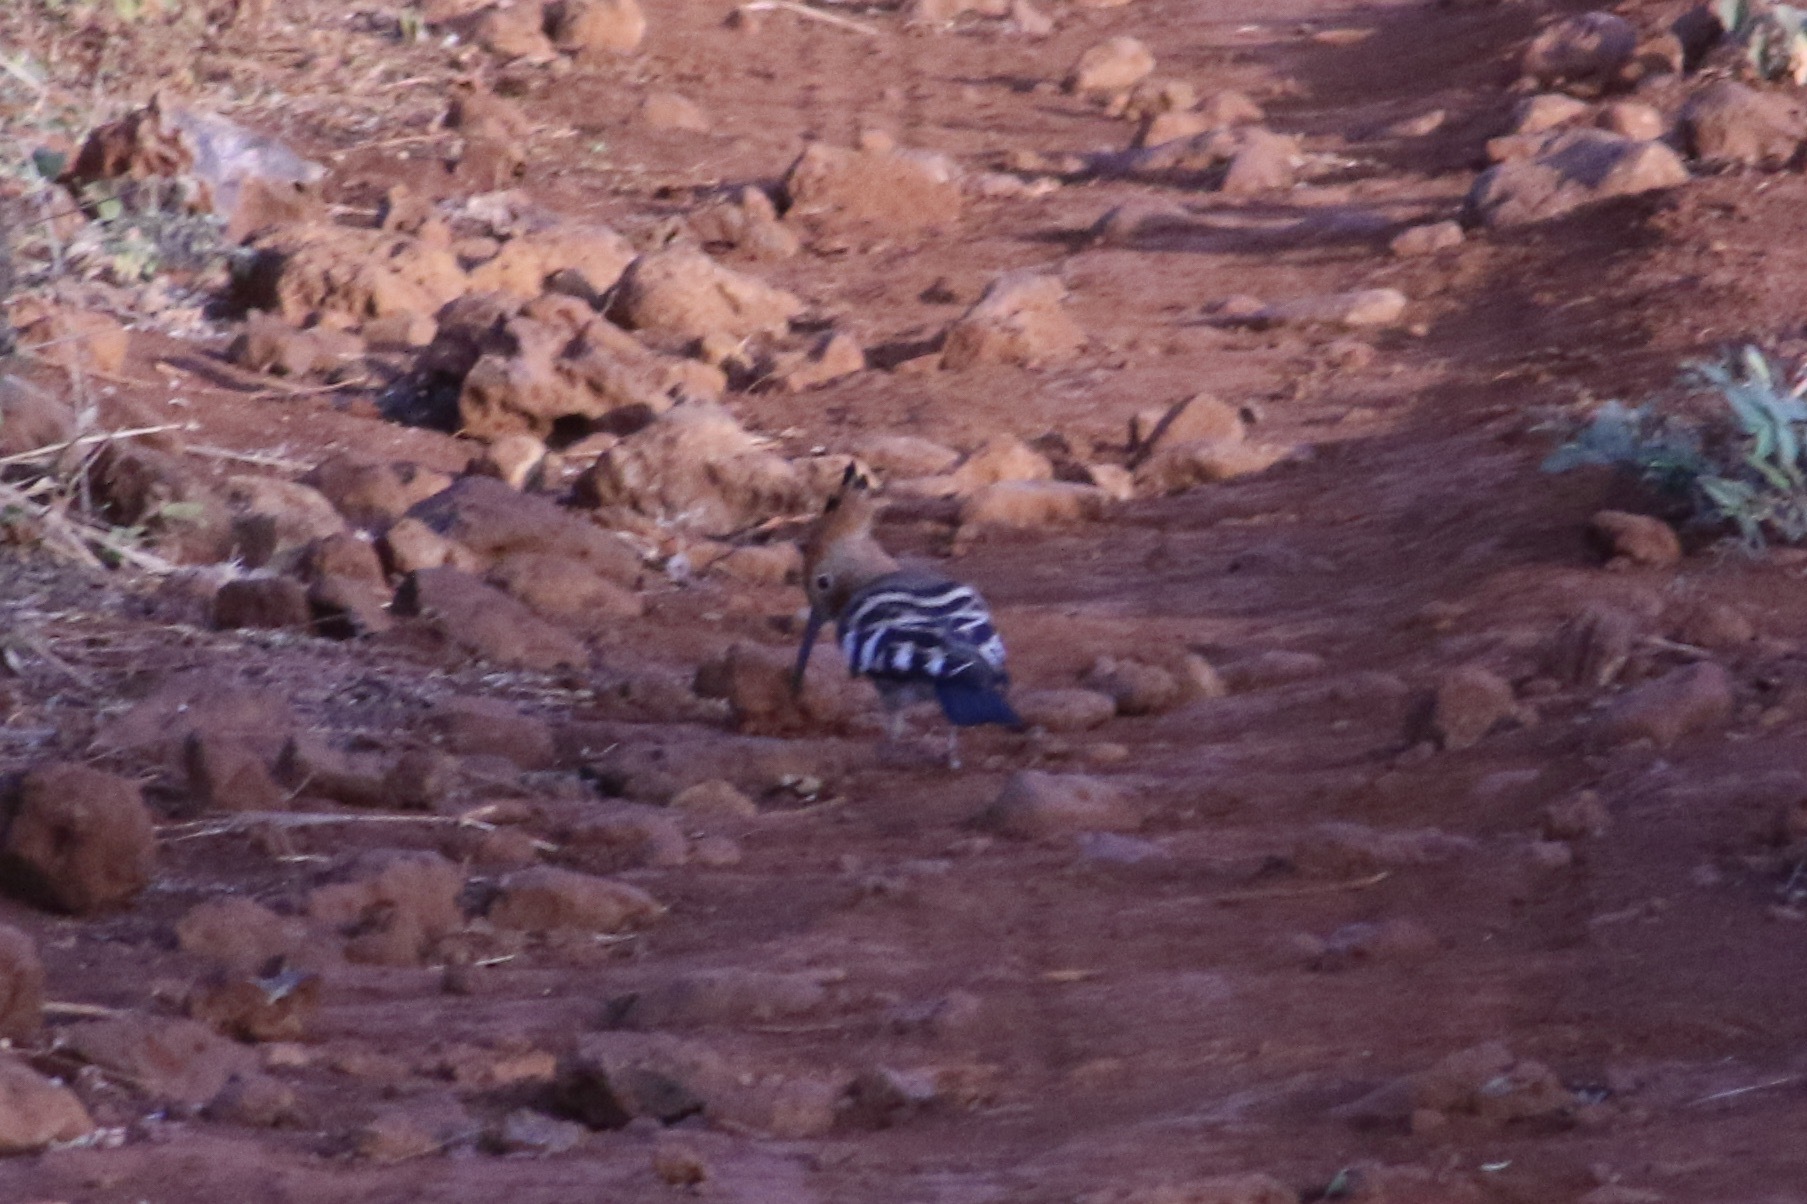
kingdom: Animalia
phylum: Chordata
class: Aves
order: Bucerotiformes
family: Upupidae
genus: Upupa
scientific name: Upupa africana
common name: African hoopoe
